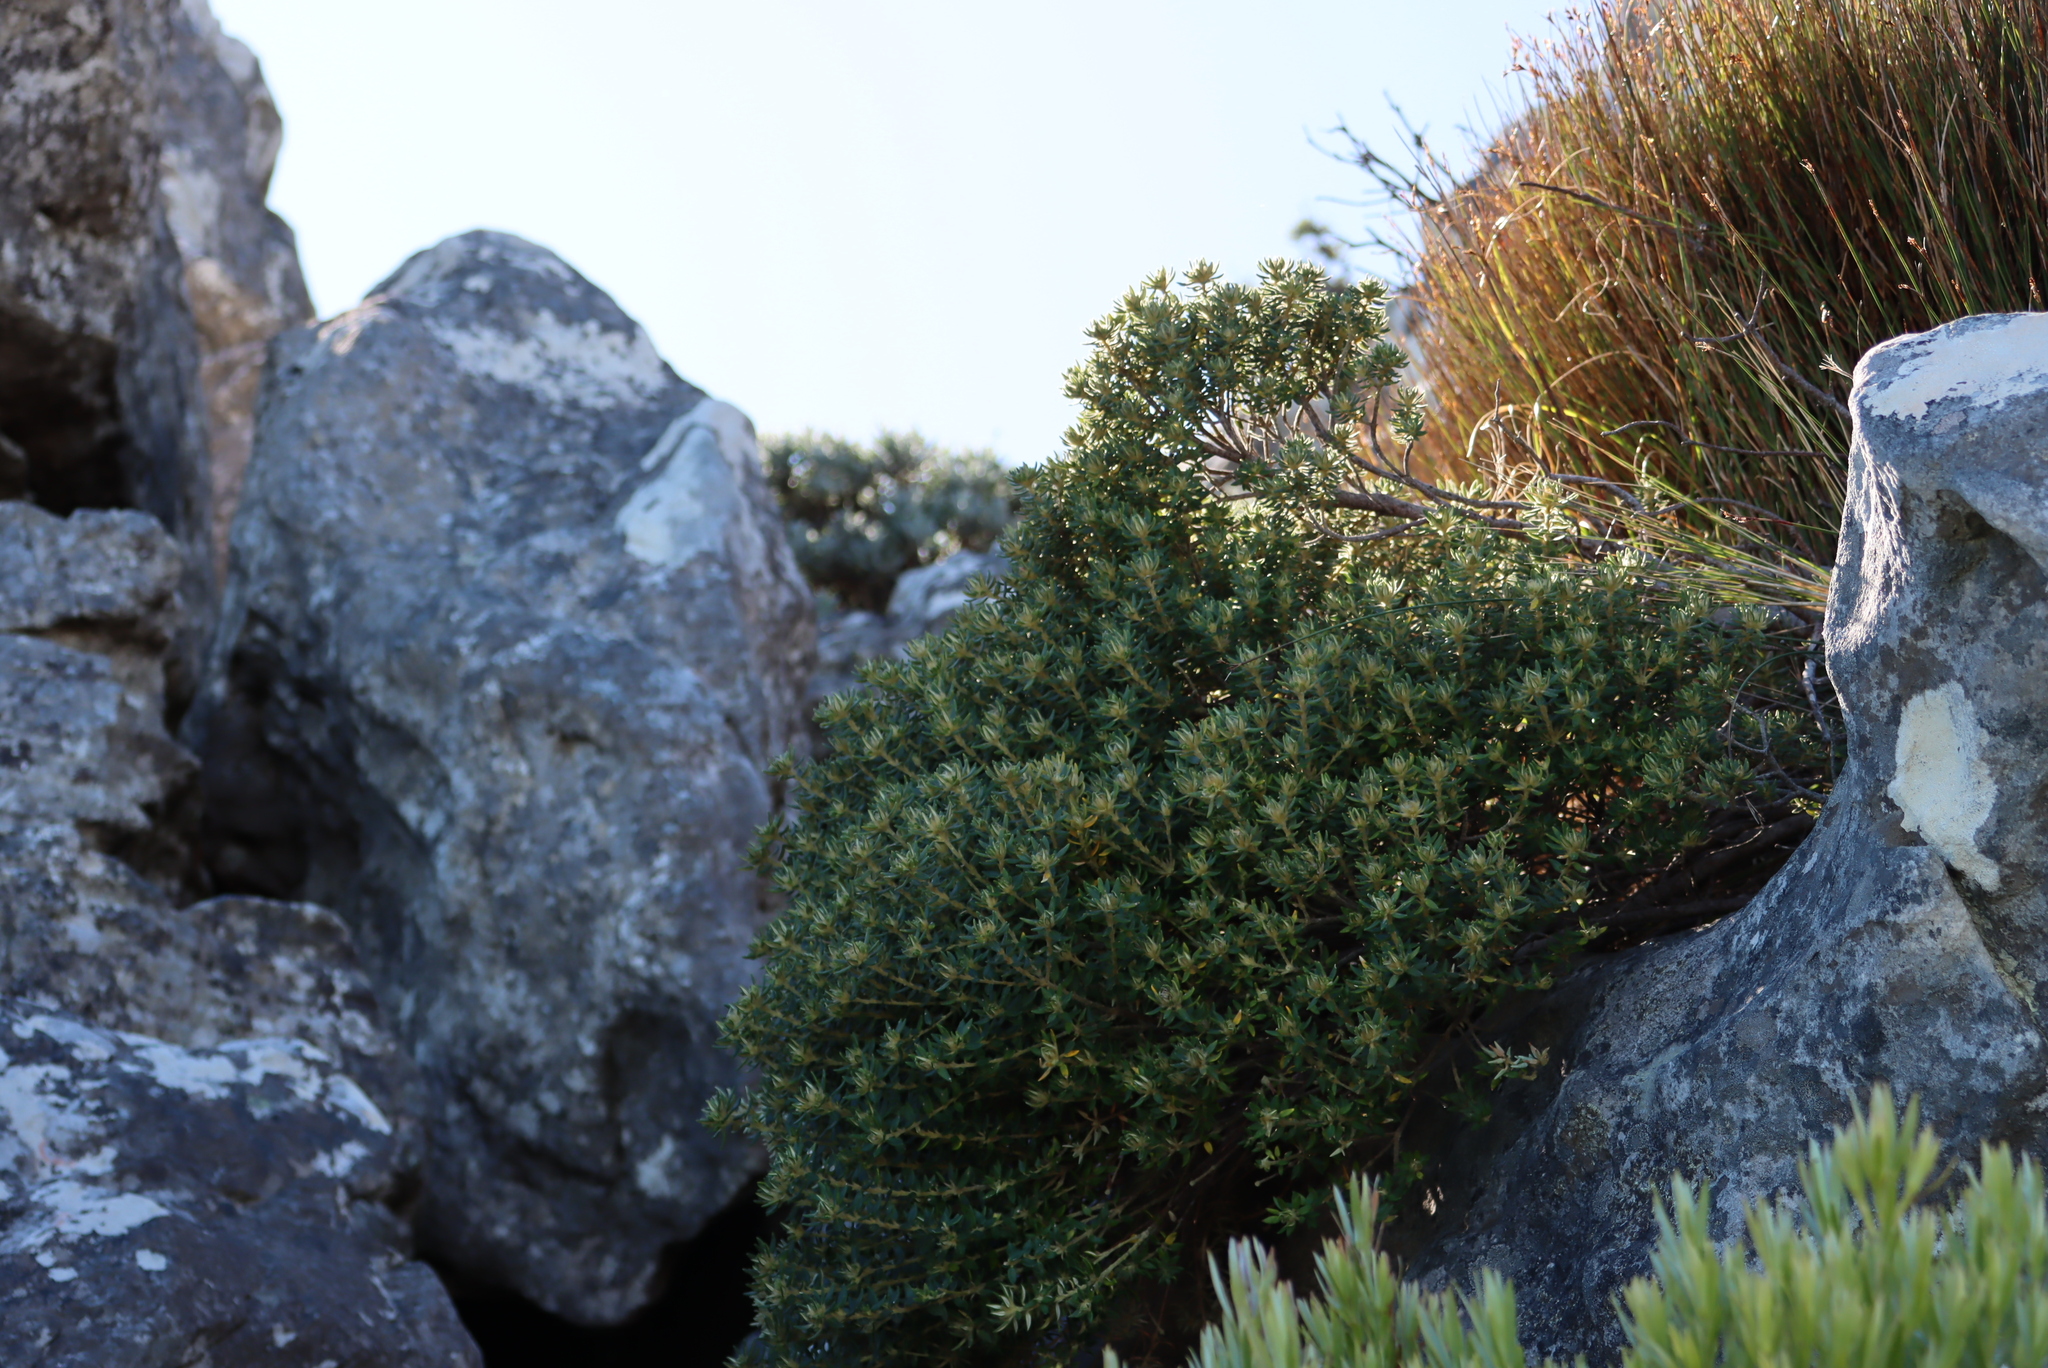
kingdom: Plantae
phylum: Tracheophyta
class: Magnoliopsida
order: Rosales
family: Rhamnaceae
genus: Phylica
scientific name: Phylica dioica
